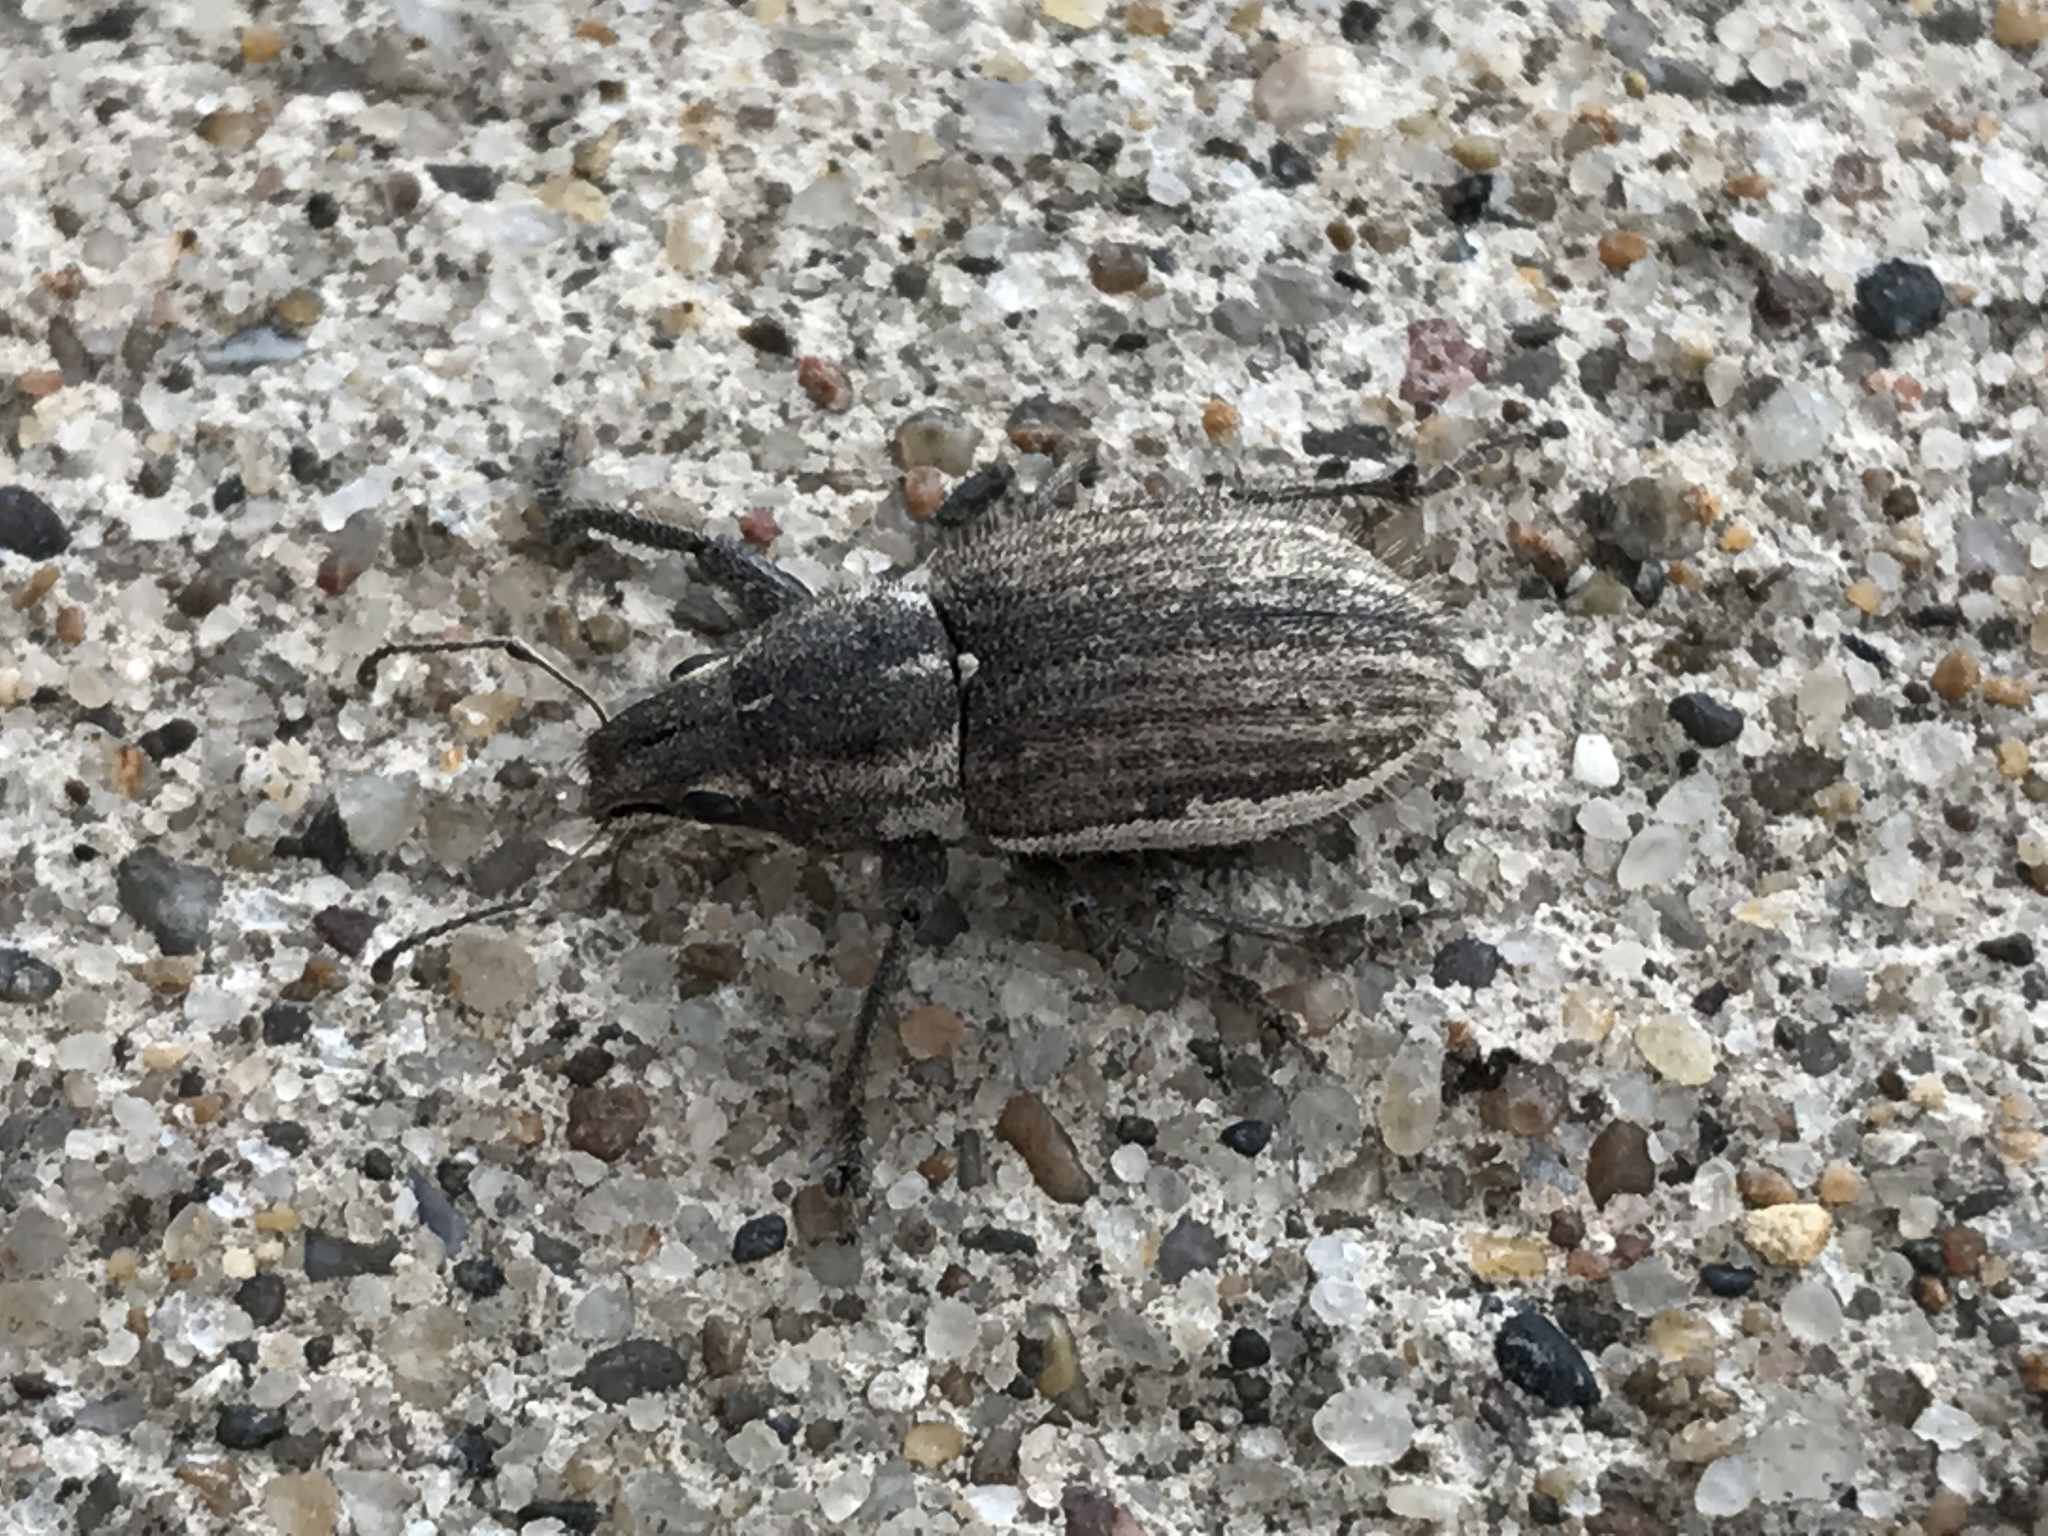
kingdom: Animalia
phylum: Arthropoda
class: Insecta
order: Coleoptera
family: Curculionidae
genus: Naupactus
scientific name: Naupactus leucoloma
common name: Whitefringed beetle
